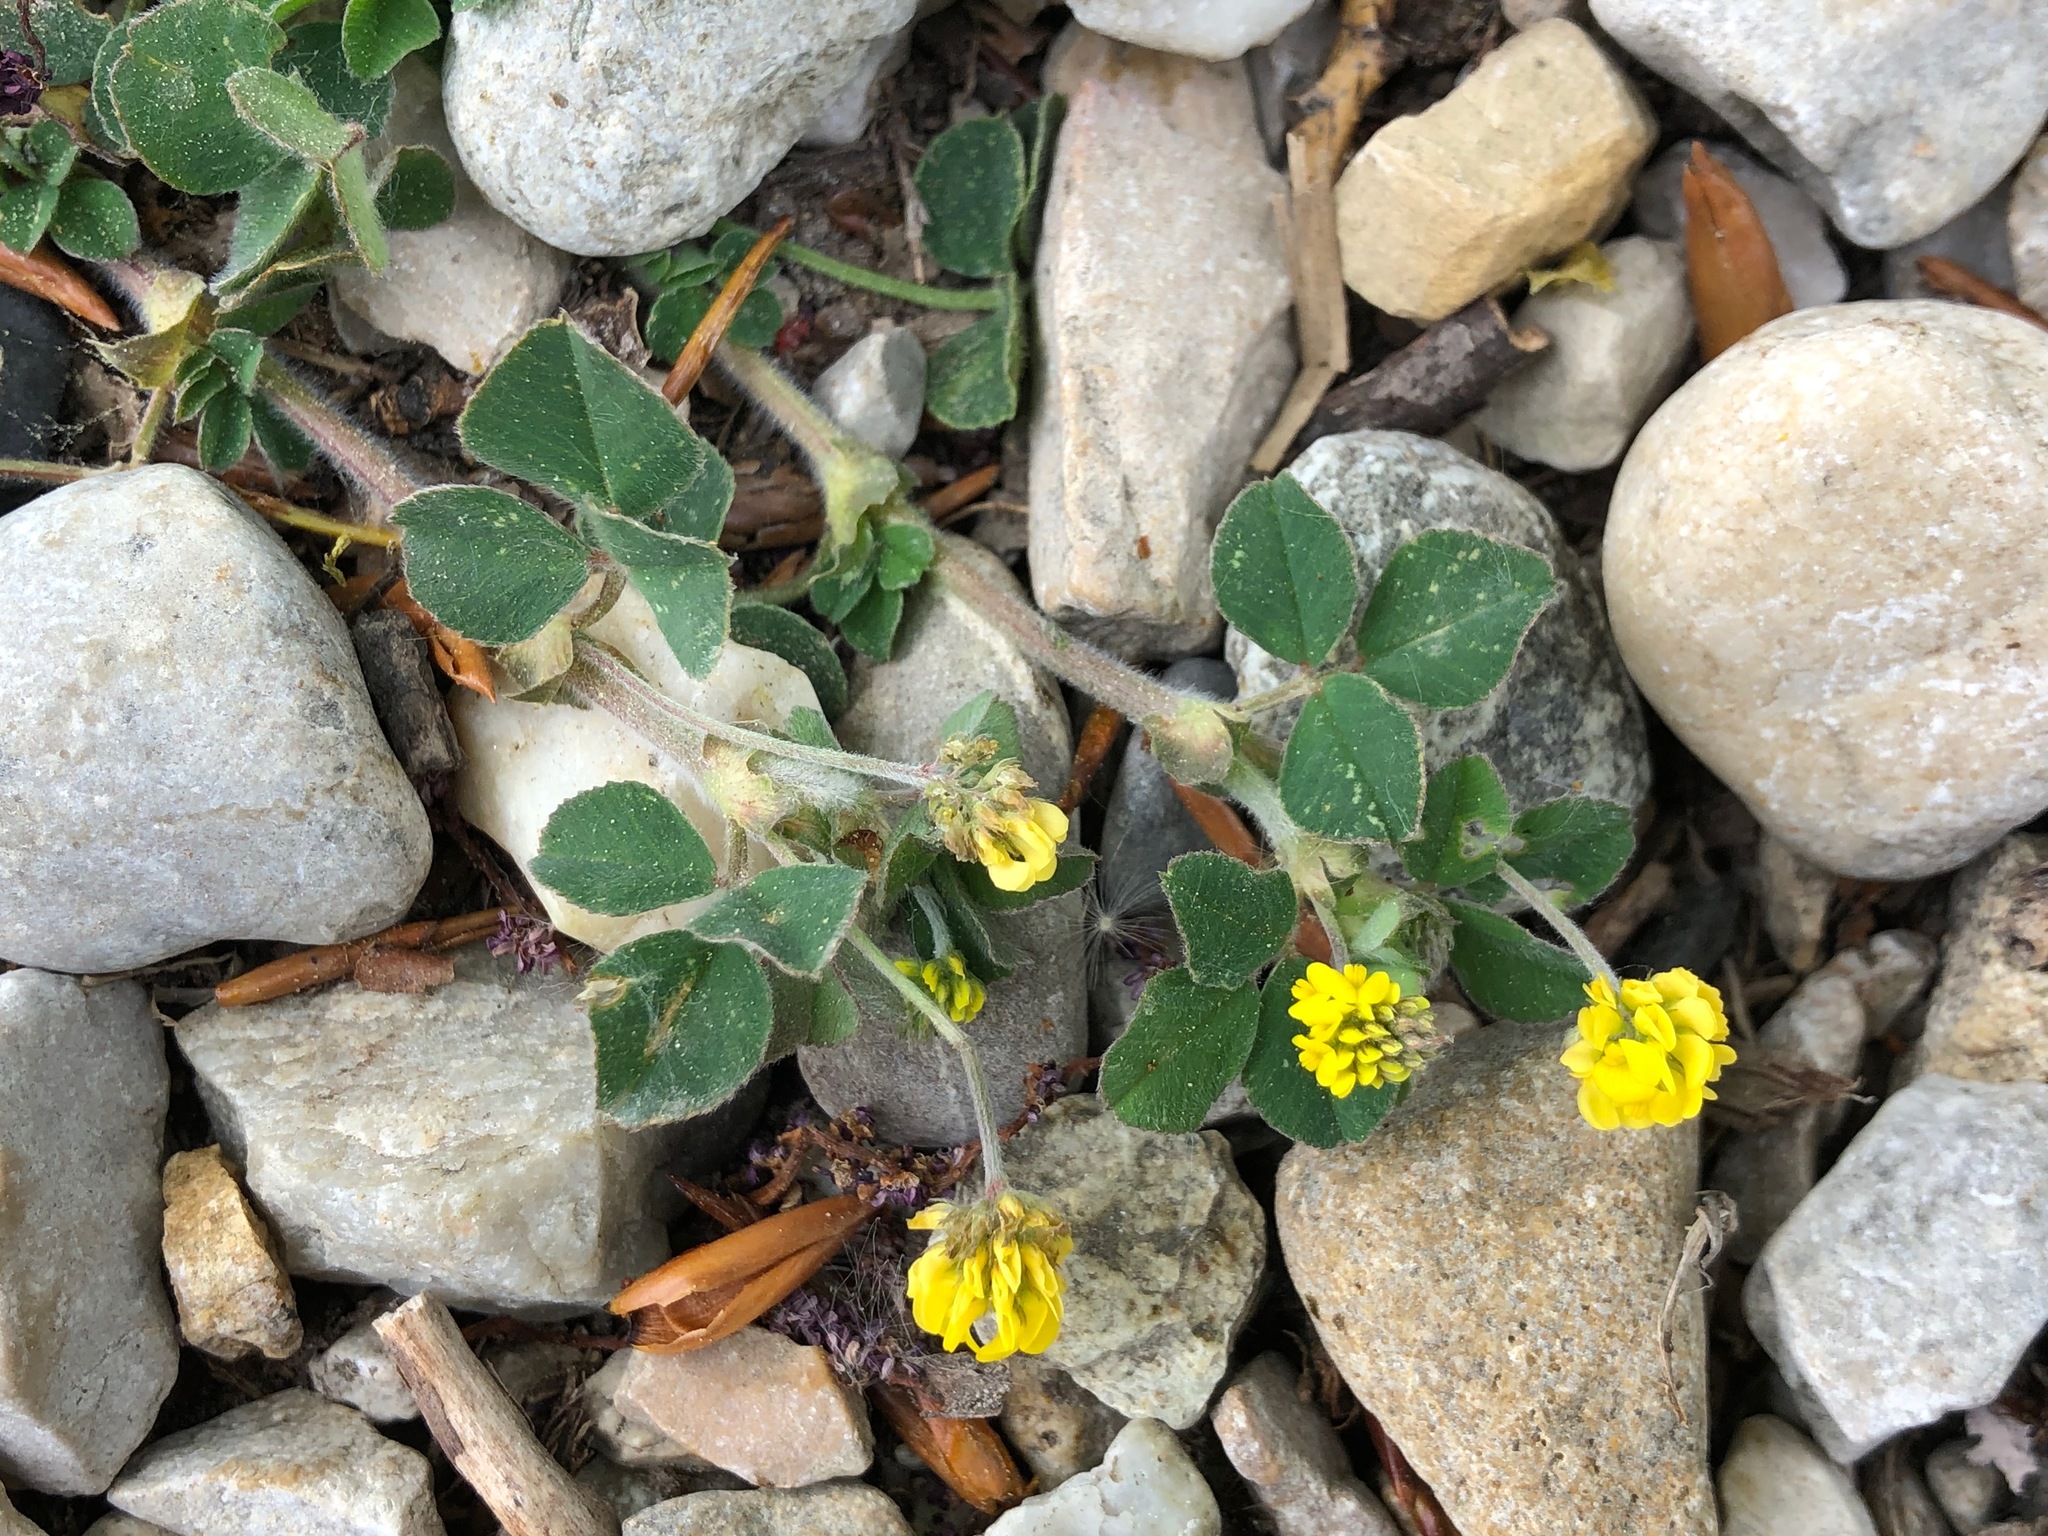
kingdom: Plantae
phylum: Tracheophyta
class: Magnoliopsida
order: Fabales
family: Fabaceae
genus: Medicago
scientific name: Medicago lupulina
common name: Black medick
